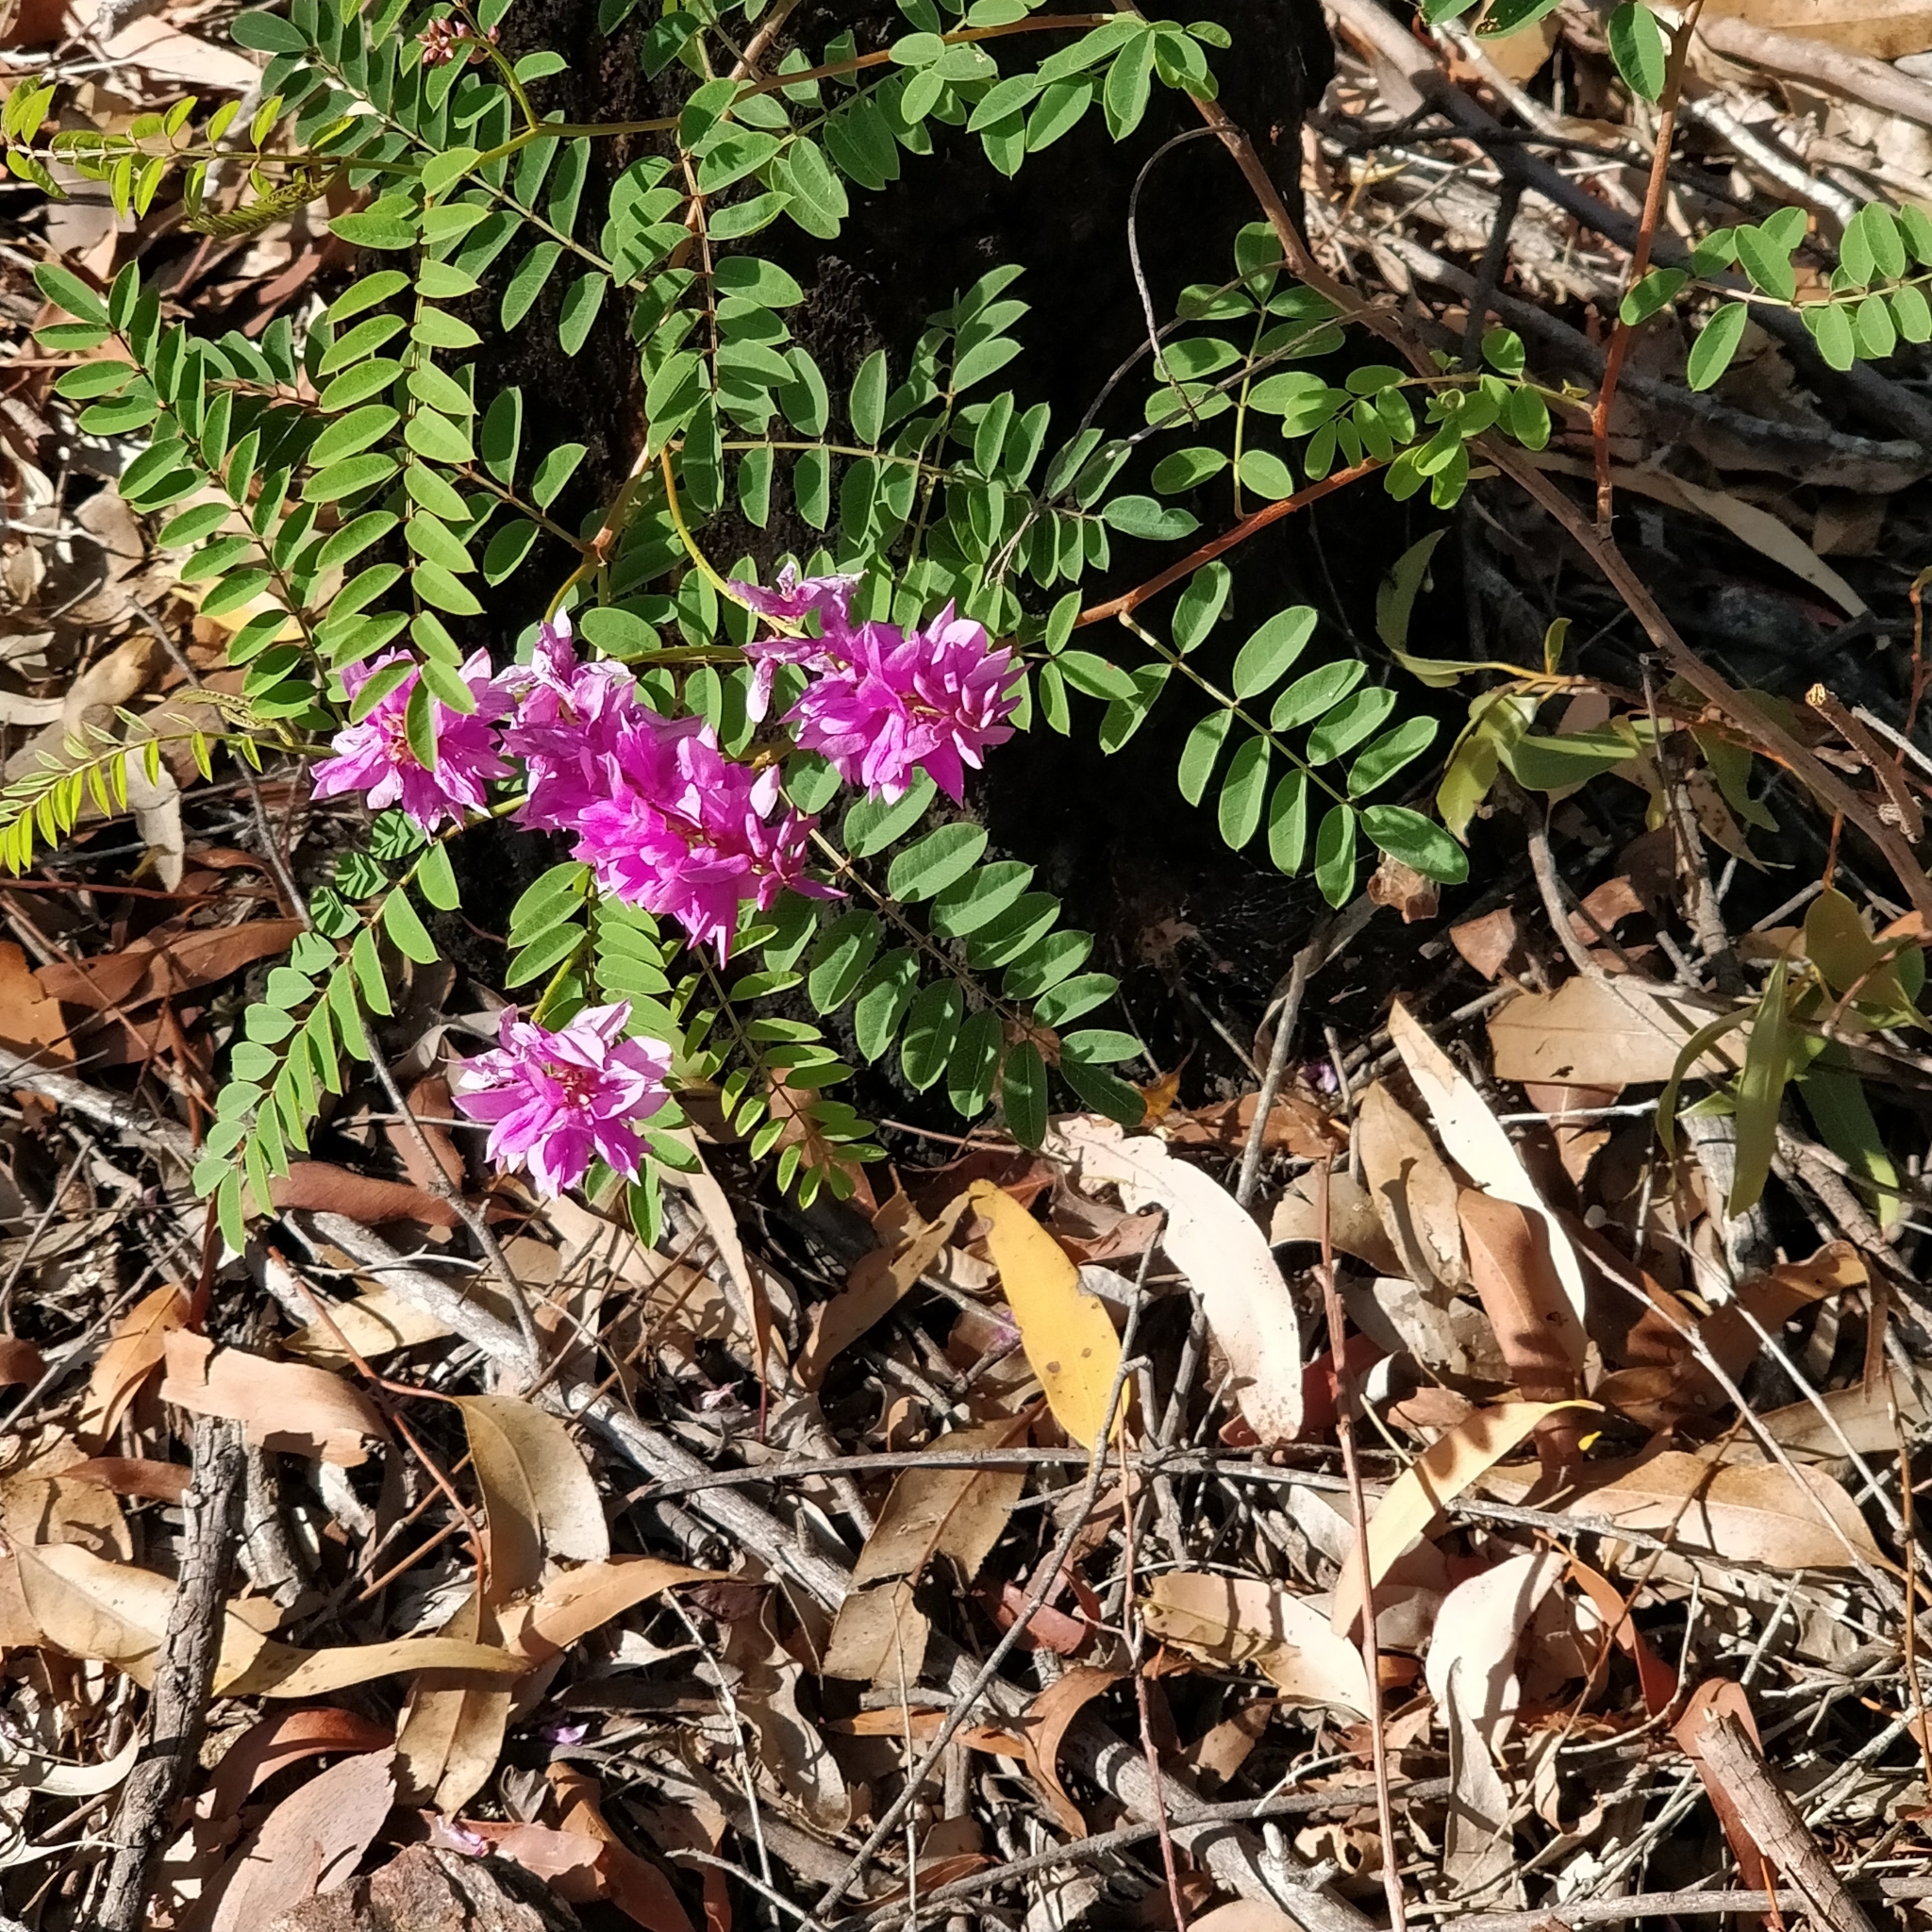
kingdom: Plantae
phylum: Tracheophyta
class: Magnoliopsida
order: Fabales
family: Fabaceae
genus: Indigofera
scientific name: Indigofera australis
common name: Australian indigo
